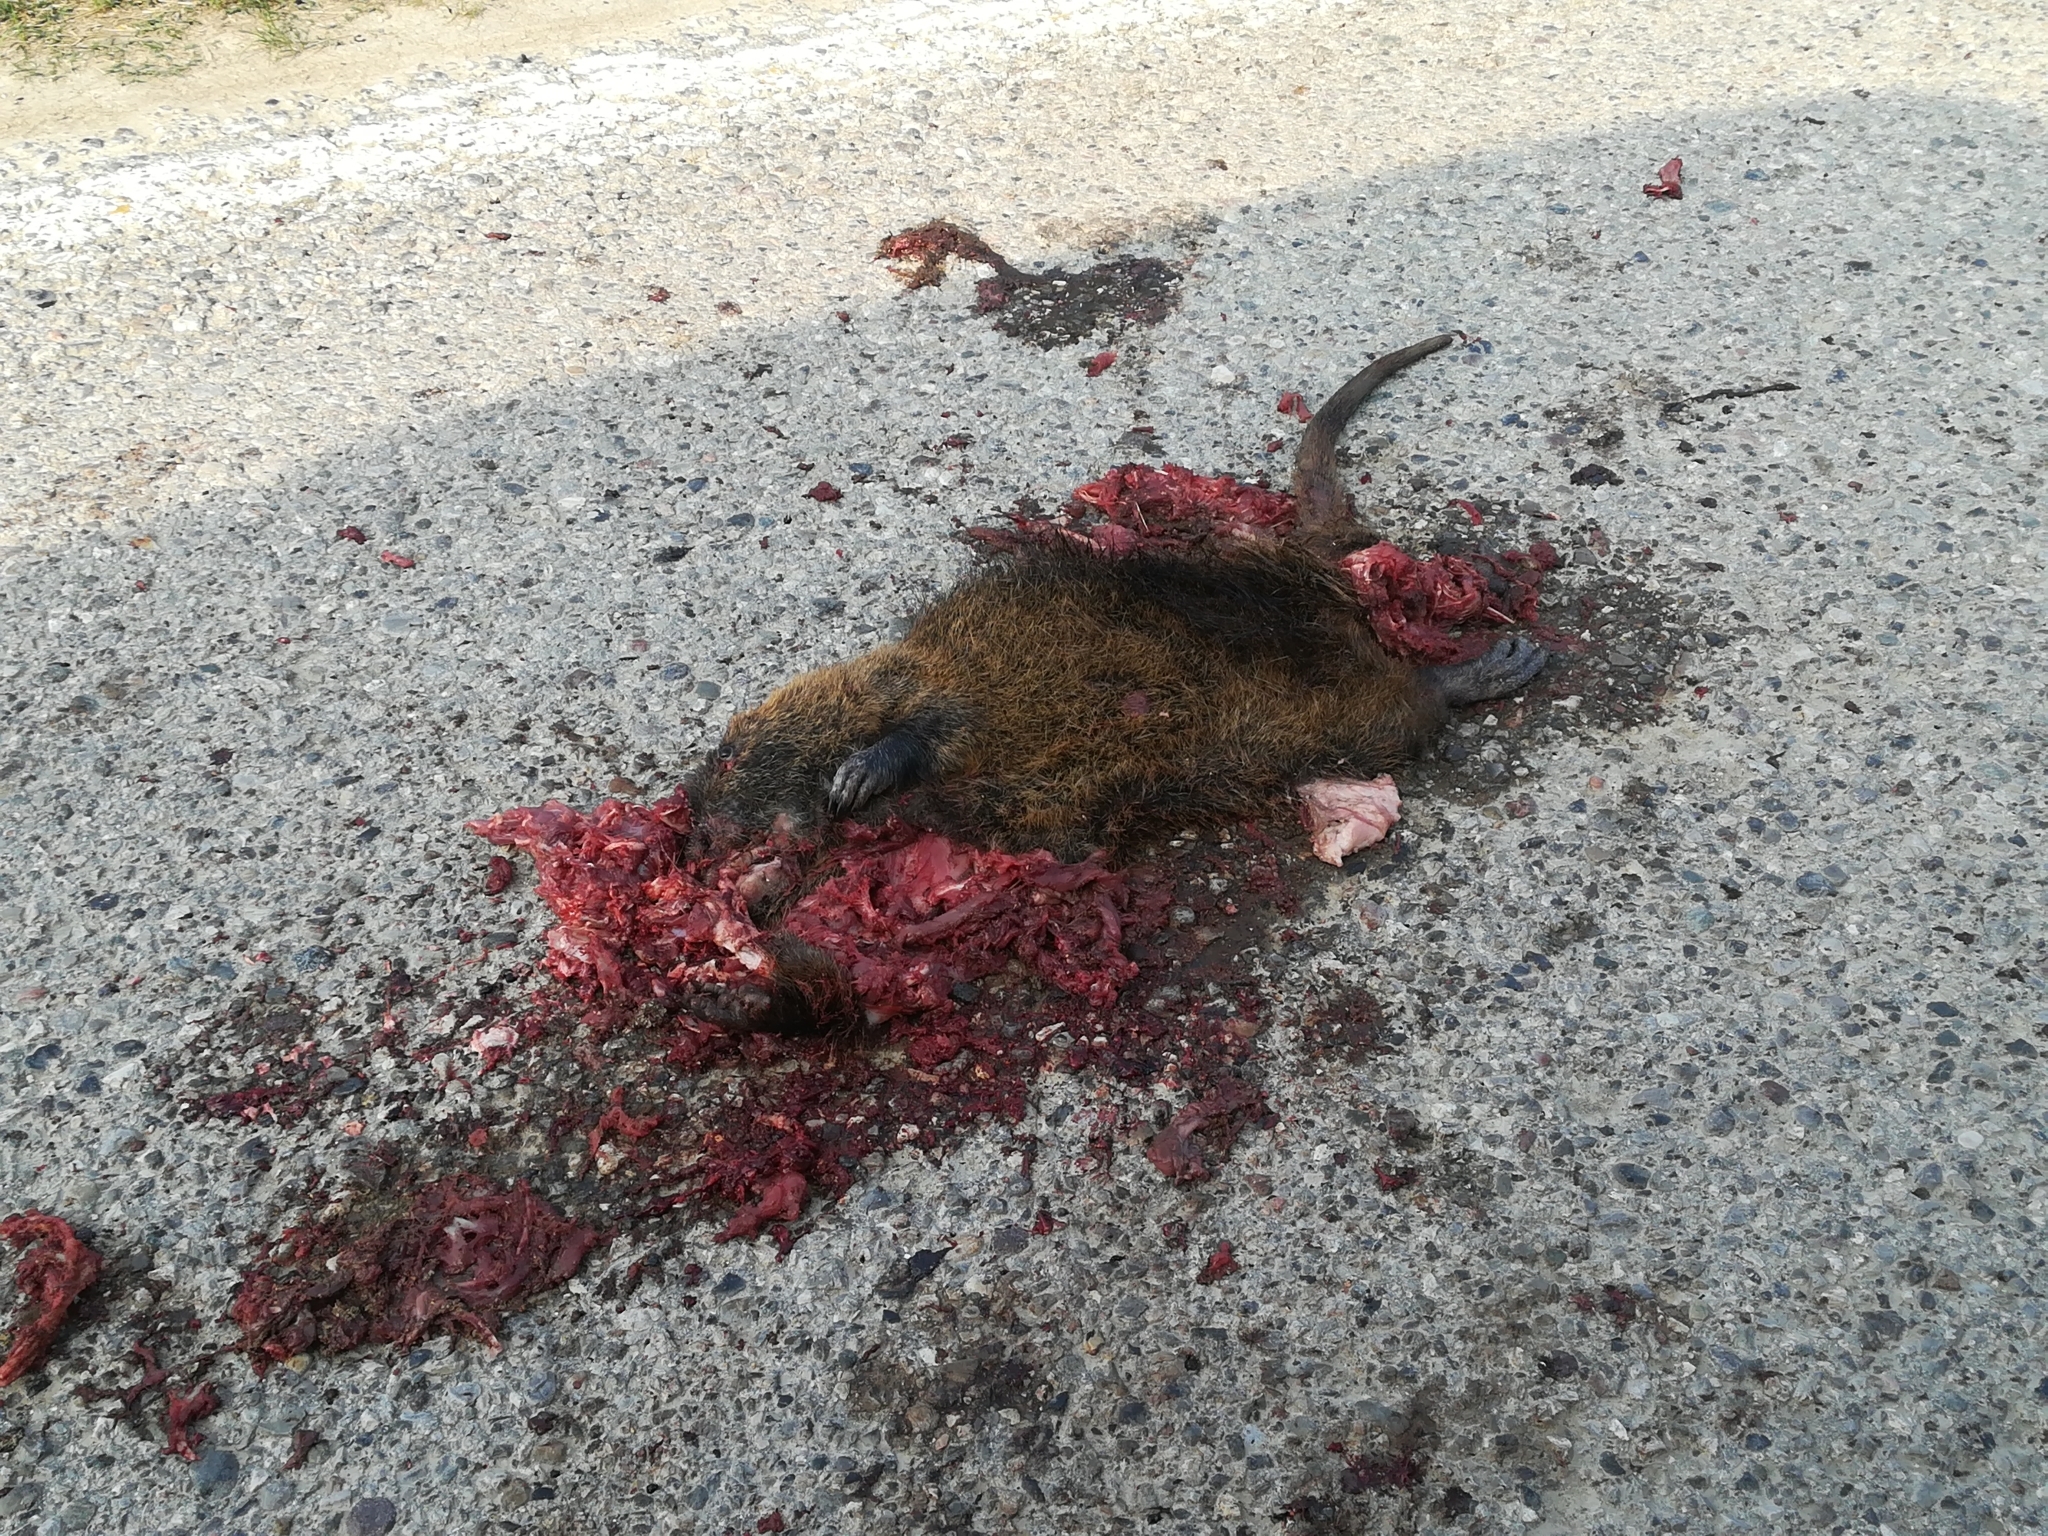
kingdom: Animalia
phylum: Chordata
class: Mammalia
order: Rodentia
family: Myocastoridae
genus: Myocastor
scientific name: Myocastor coypus
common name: Coypu
